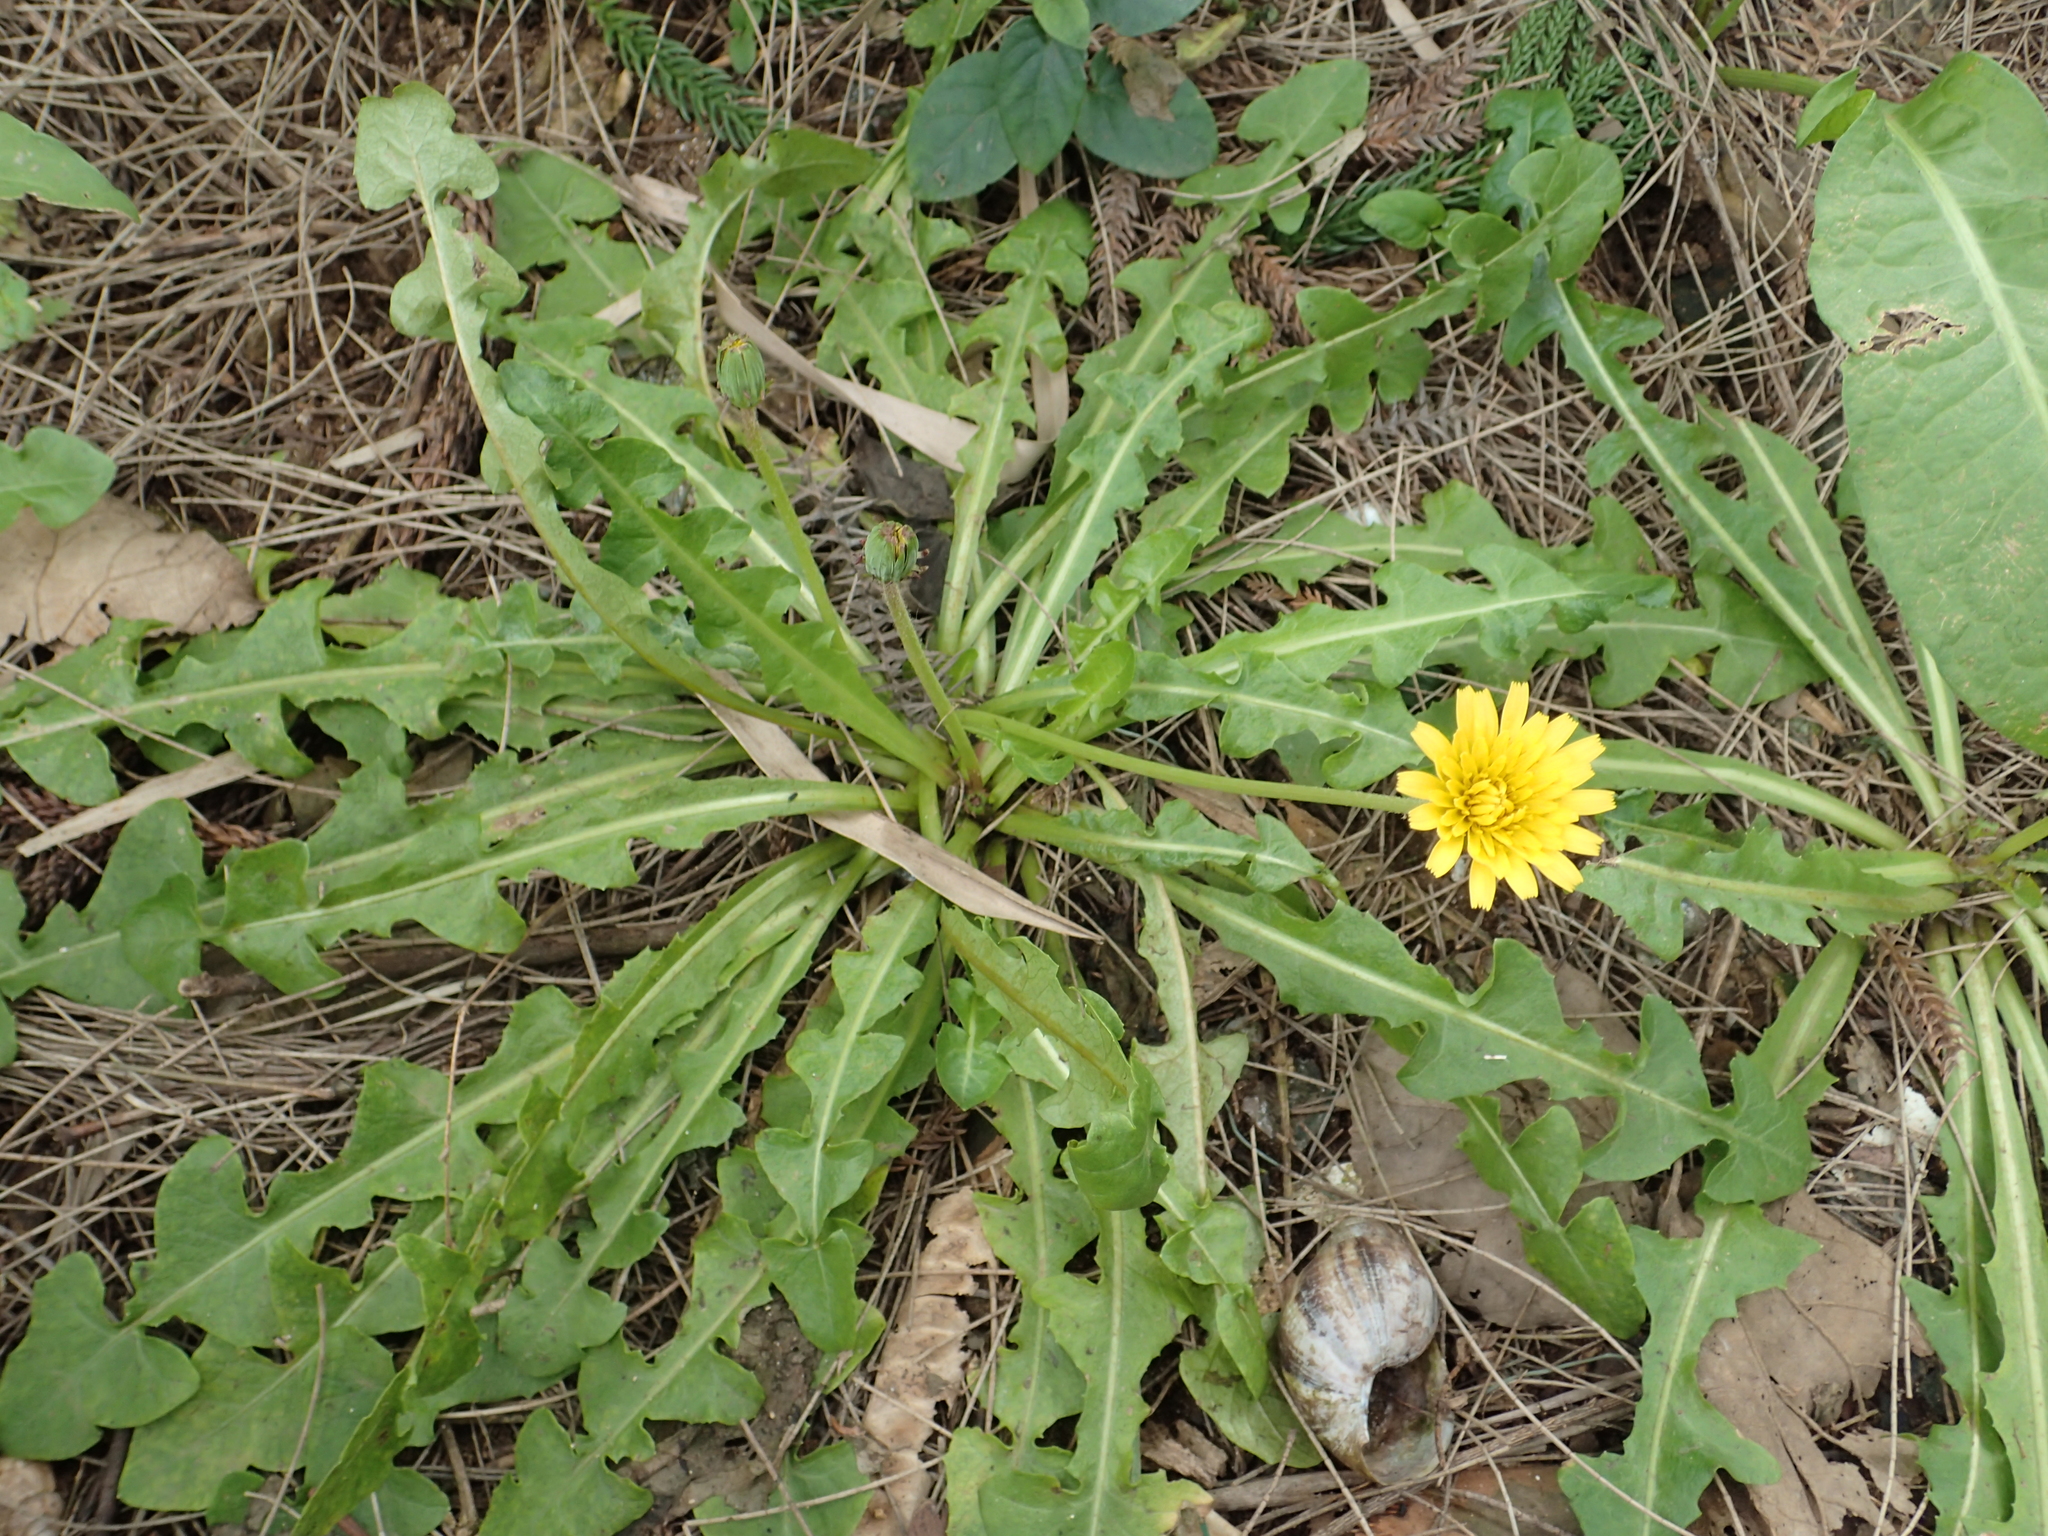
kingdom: Plantae
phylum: Tracheophyta
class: Magnoliopsida
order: Asterales
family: Asteraceae
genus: Taraxacum
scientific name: Taraxacum formosanum
